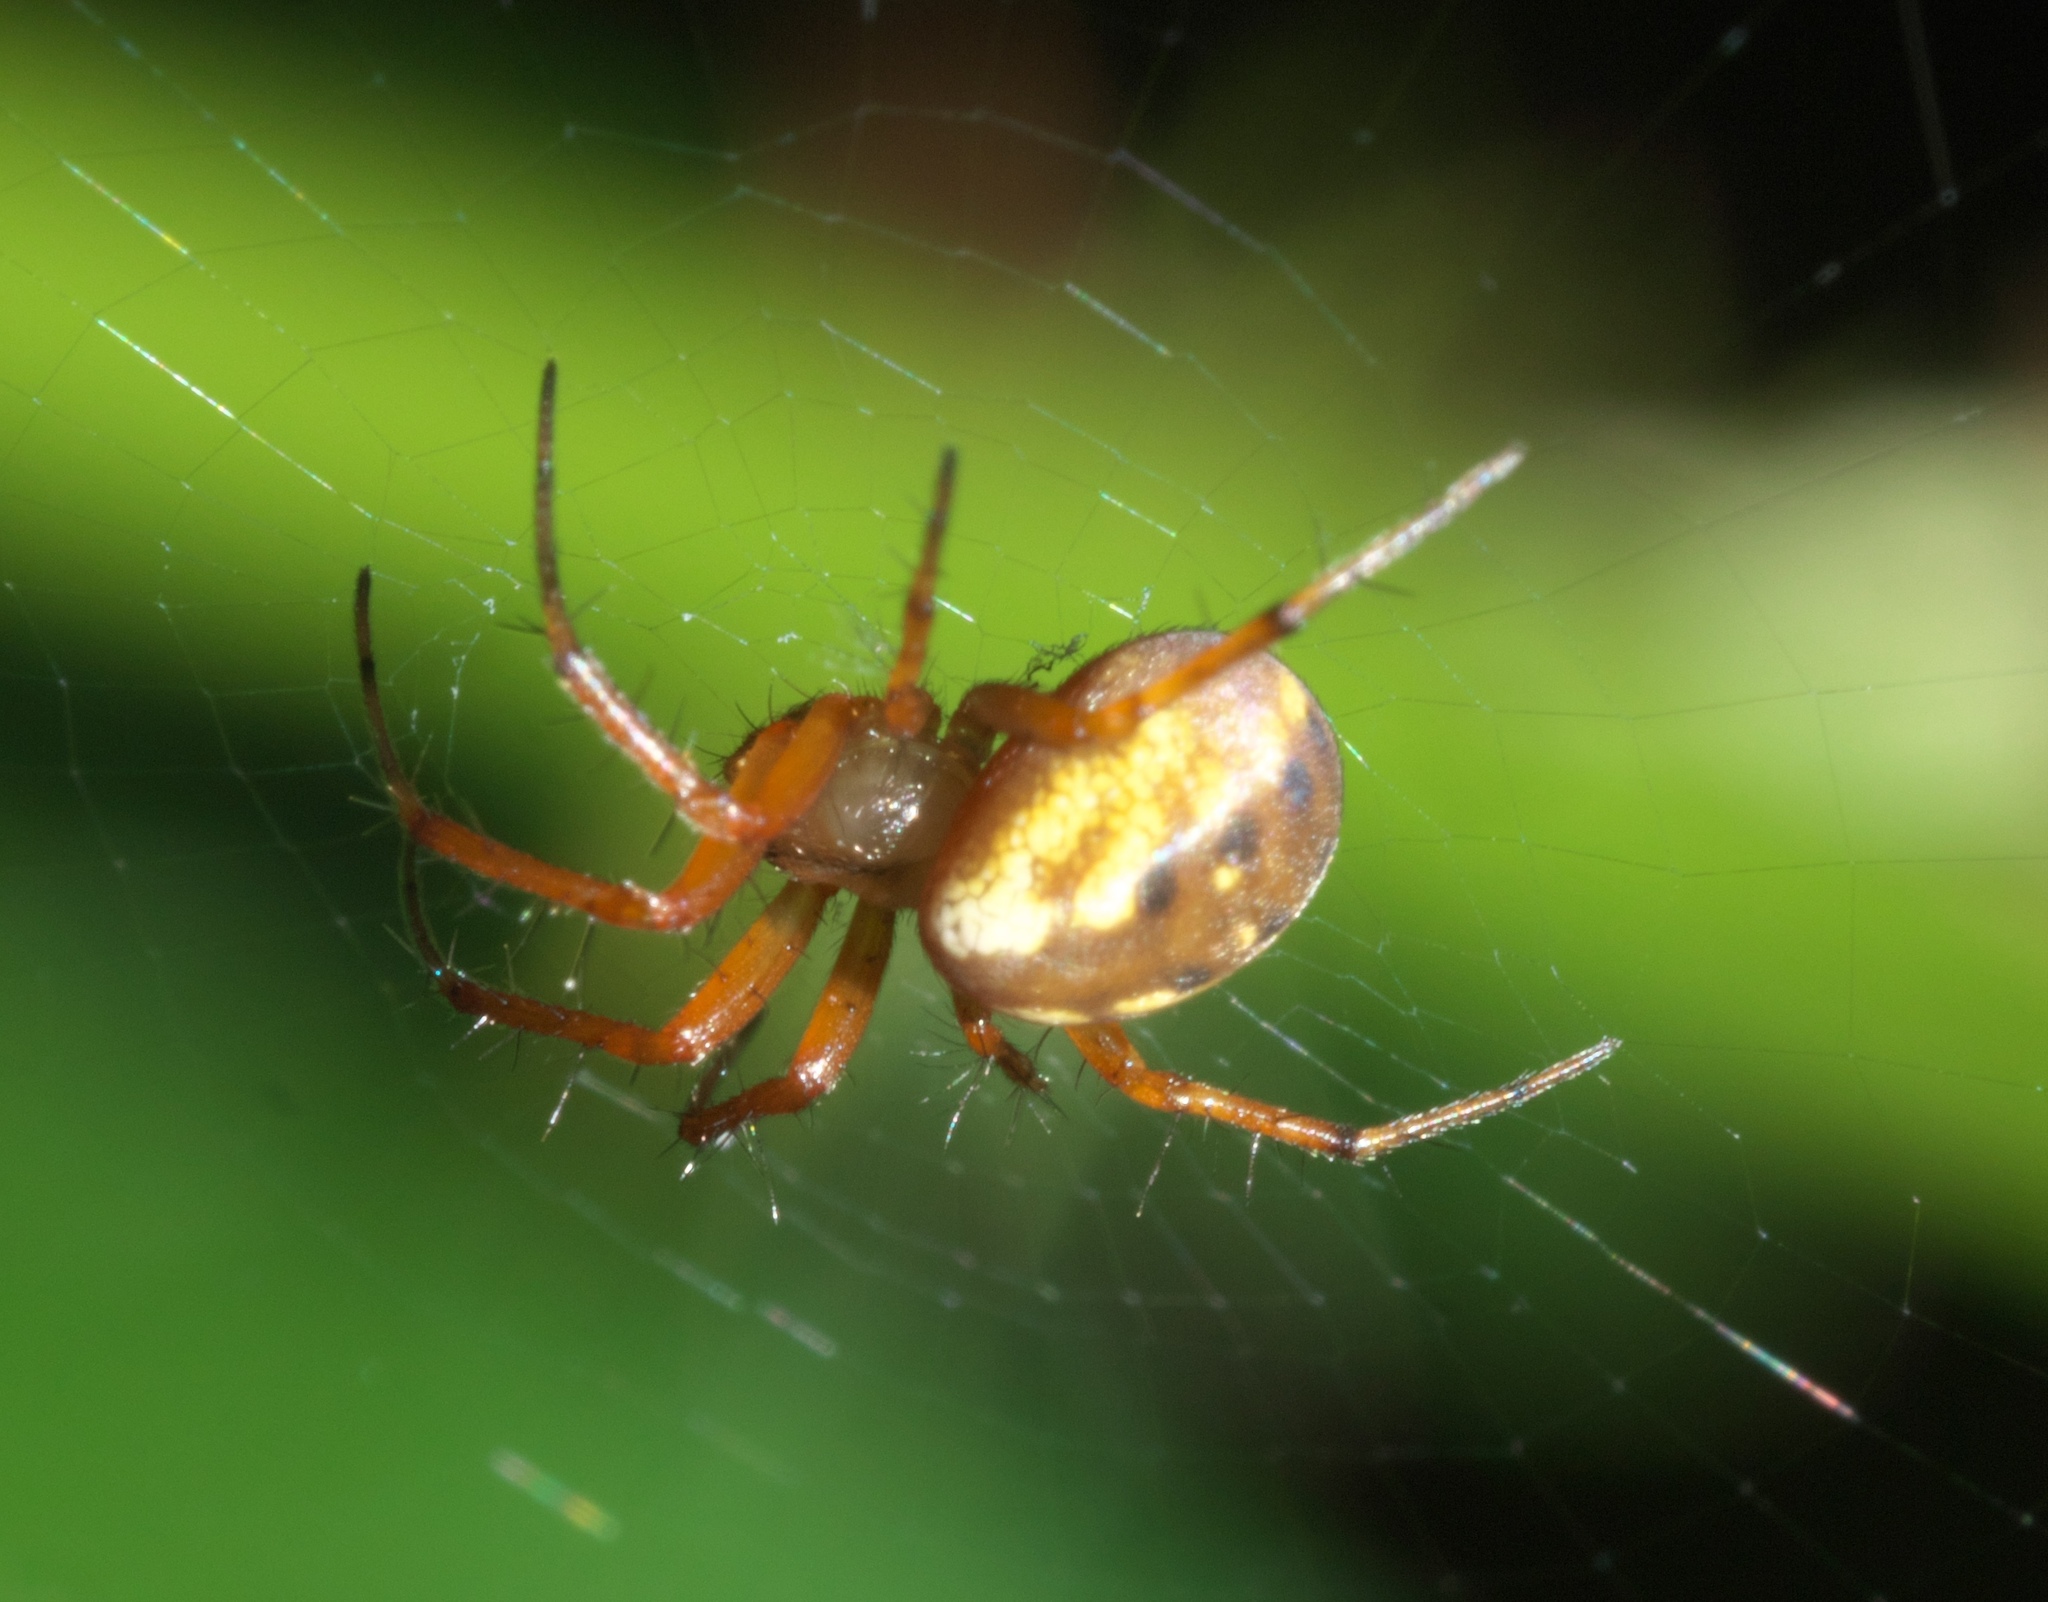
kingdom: Animalia
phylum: Arthropoda
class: Arachnida
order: Araneae
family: Araneidae
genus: Mangora
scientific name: Mangora placida
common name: Tuft-legged orbweaver
